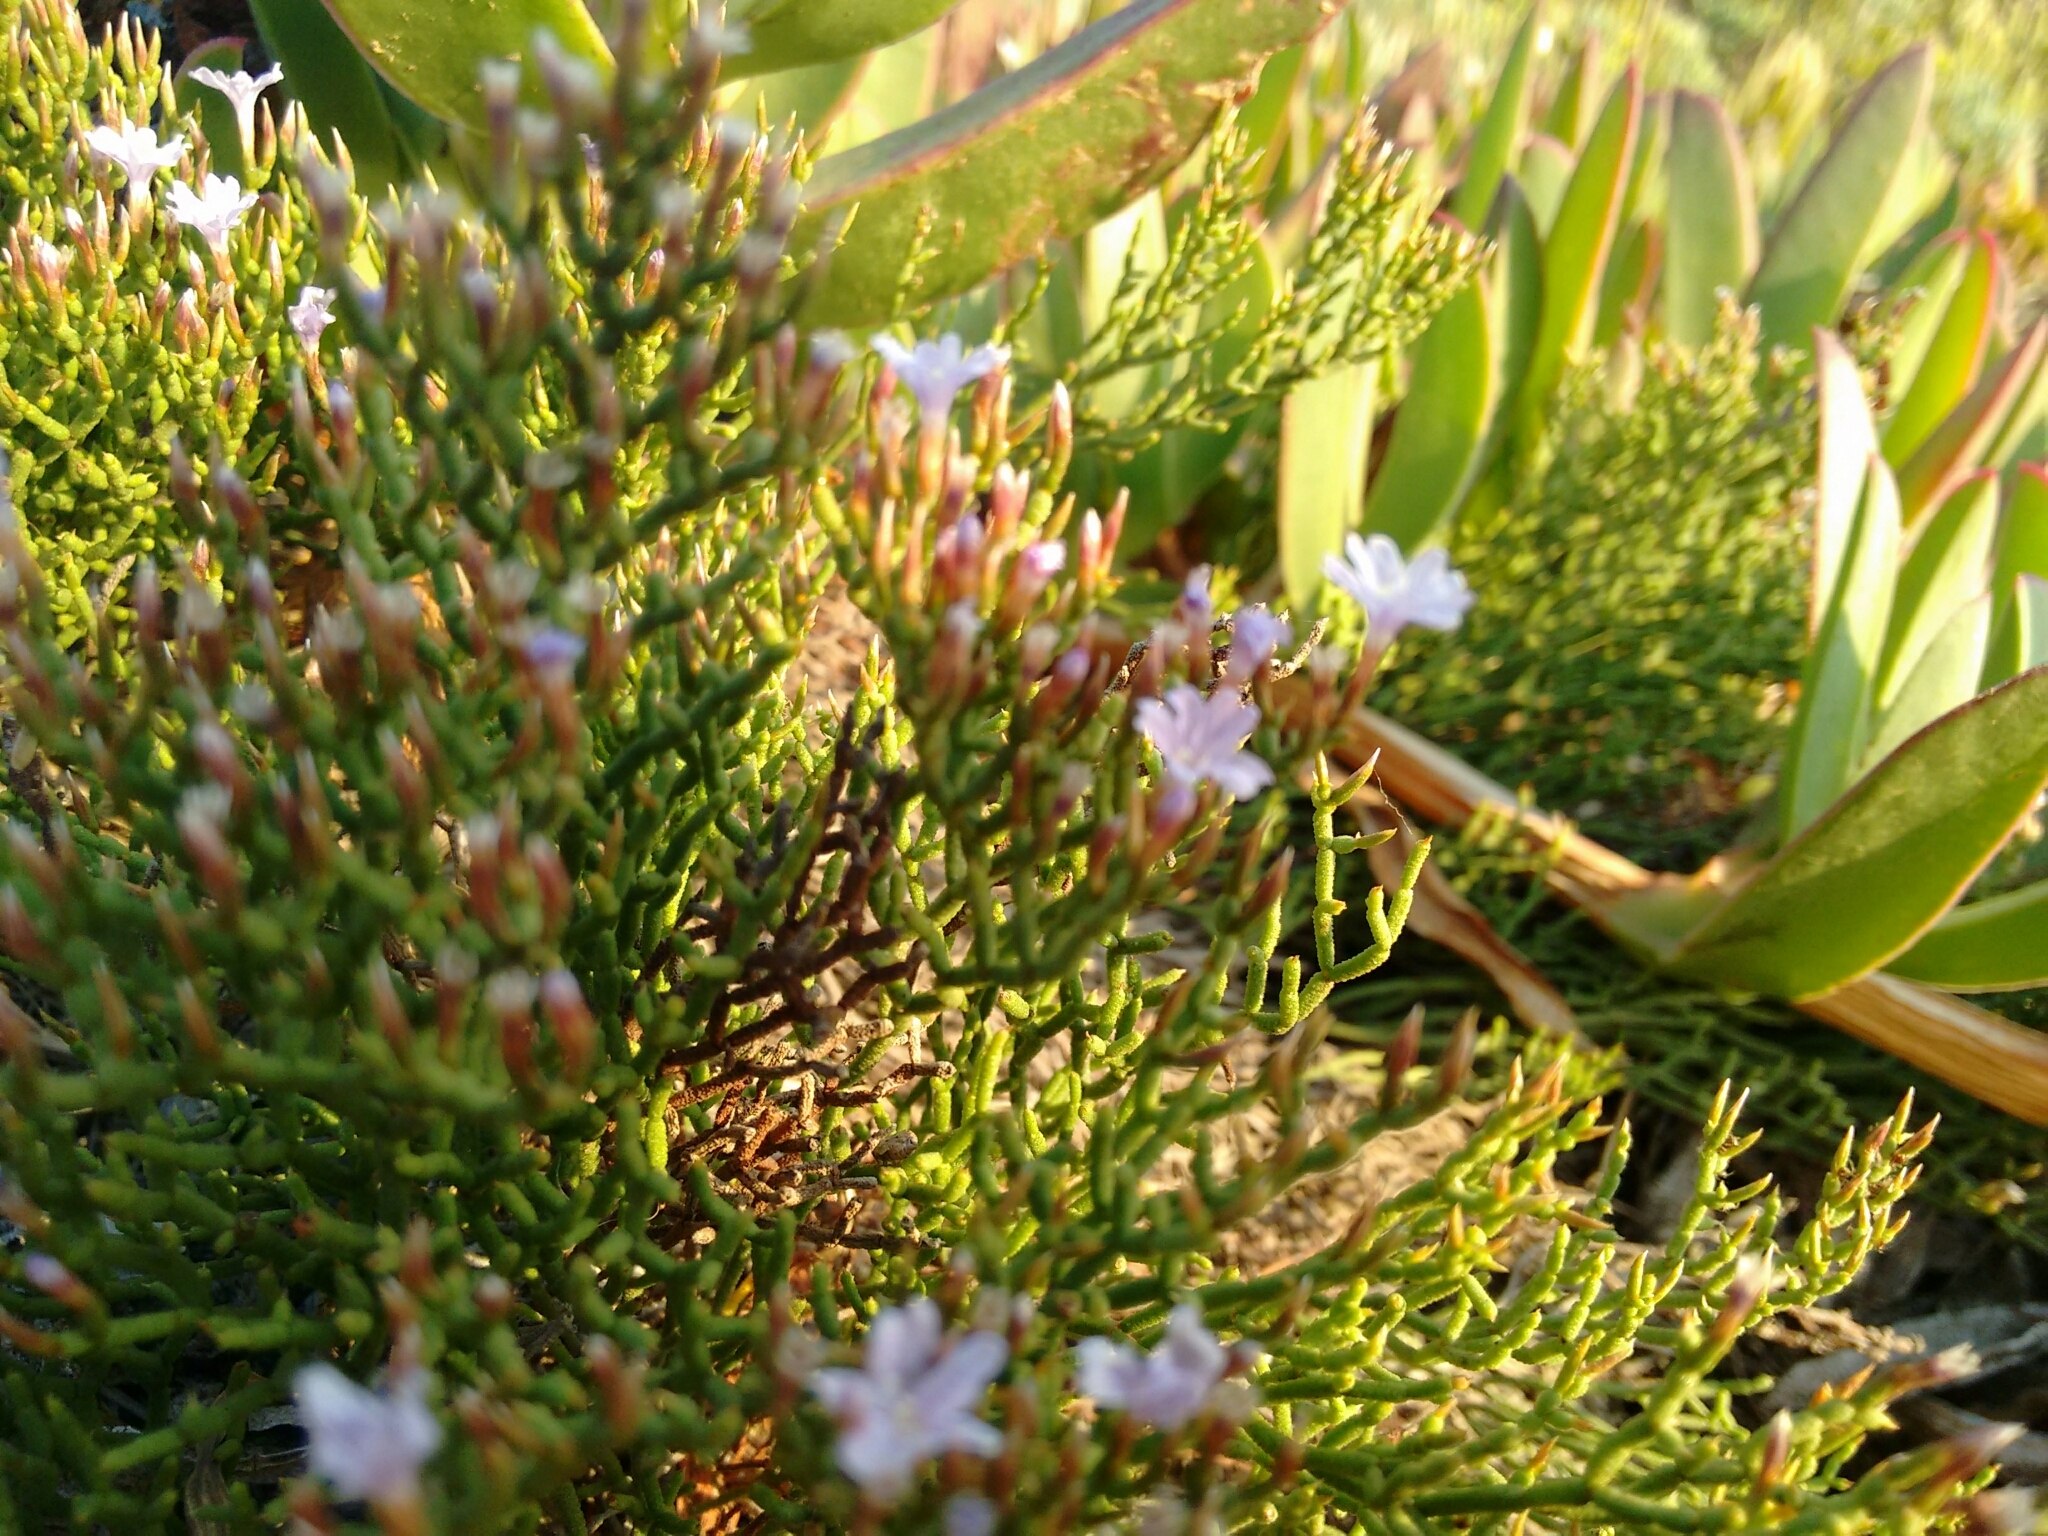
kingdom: Plantae
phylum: Tracheophyta
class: Magnoliopsida
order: Caryophyllales
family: Plumbaginaceae
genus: Limonium
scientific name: Limonium articulatum
